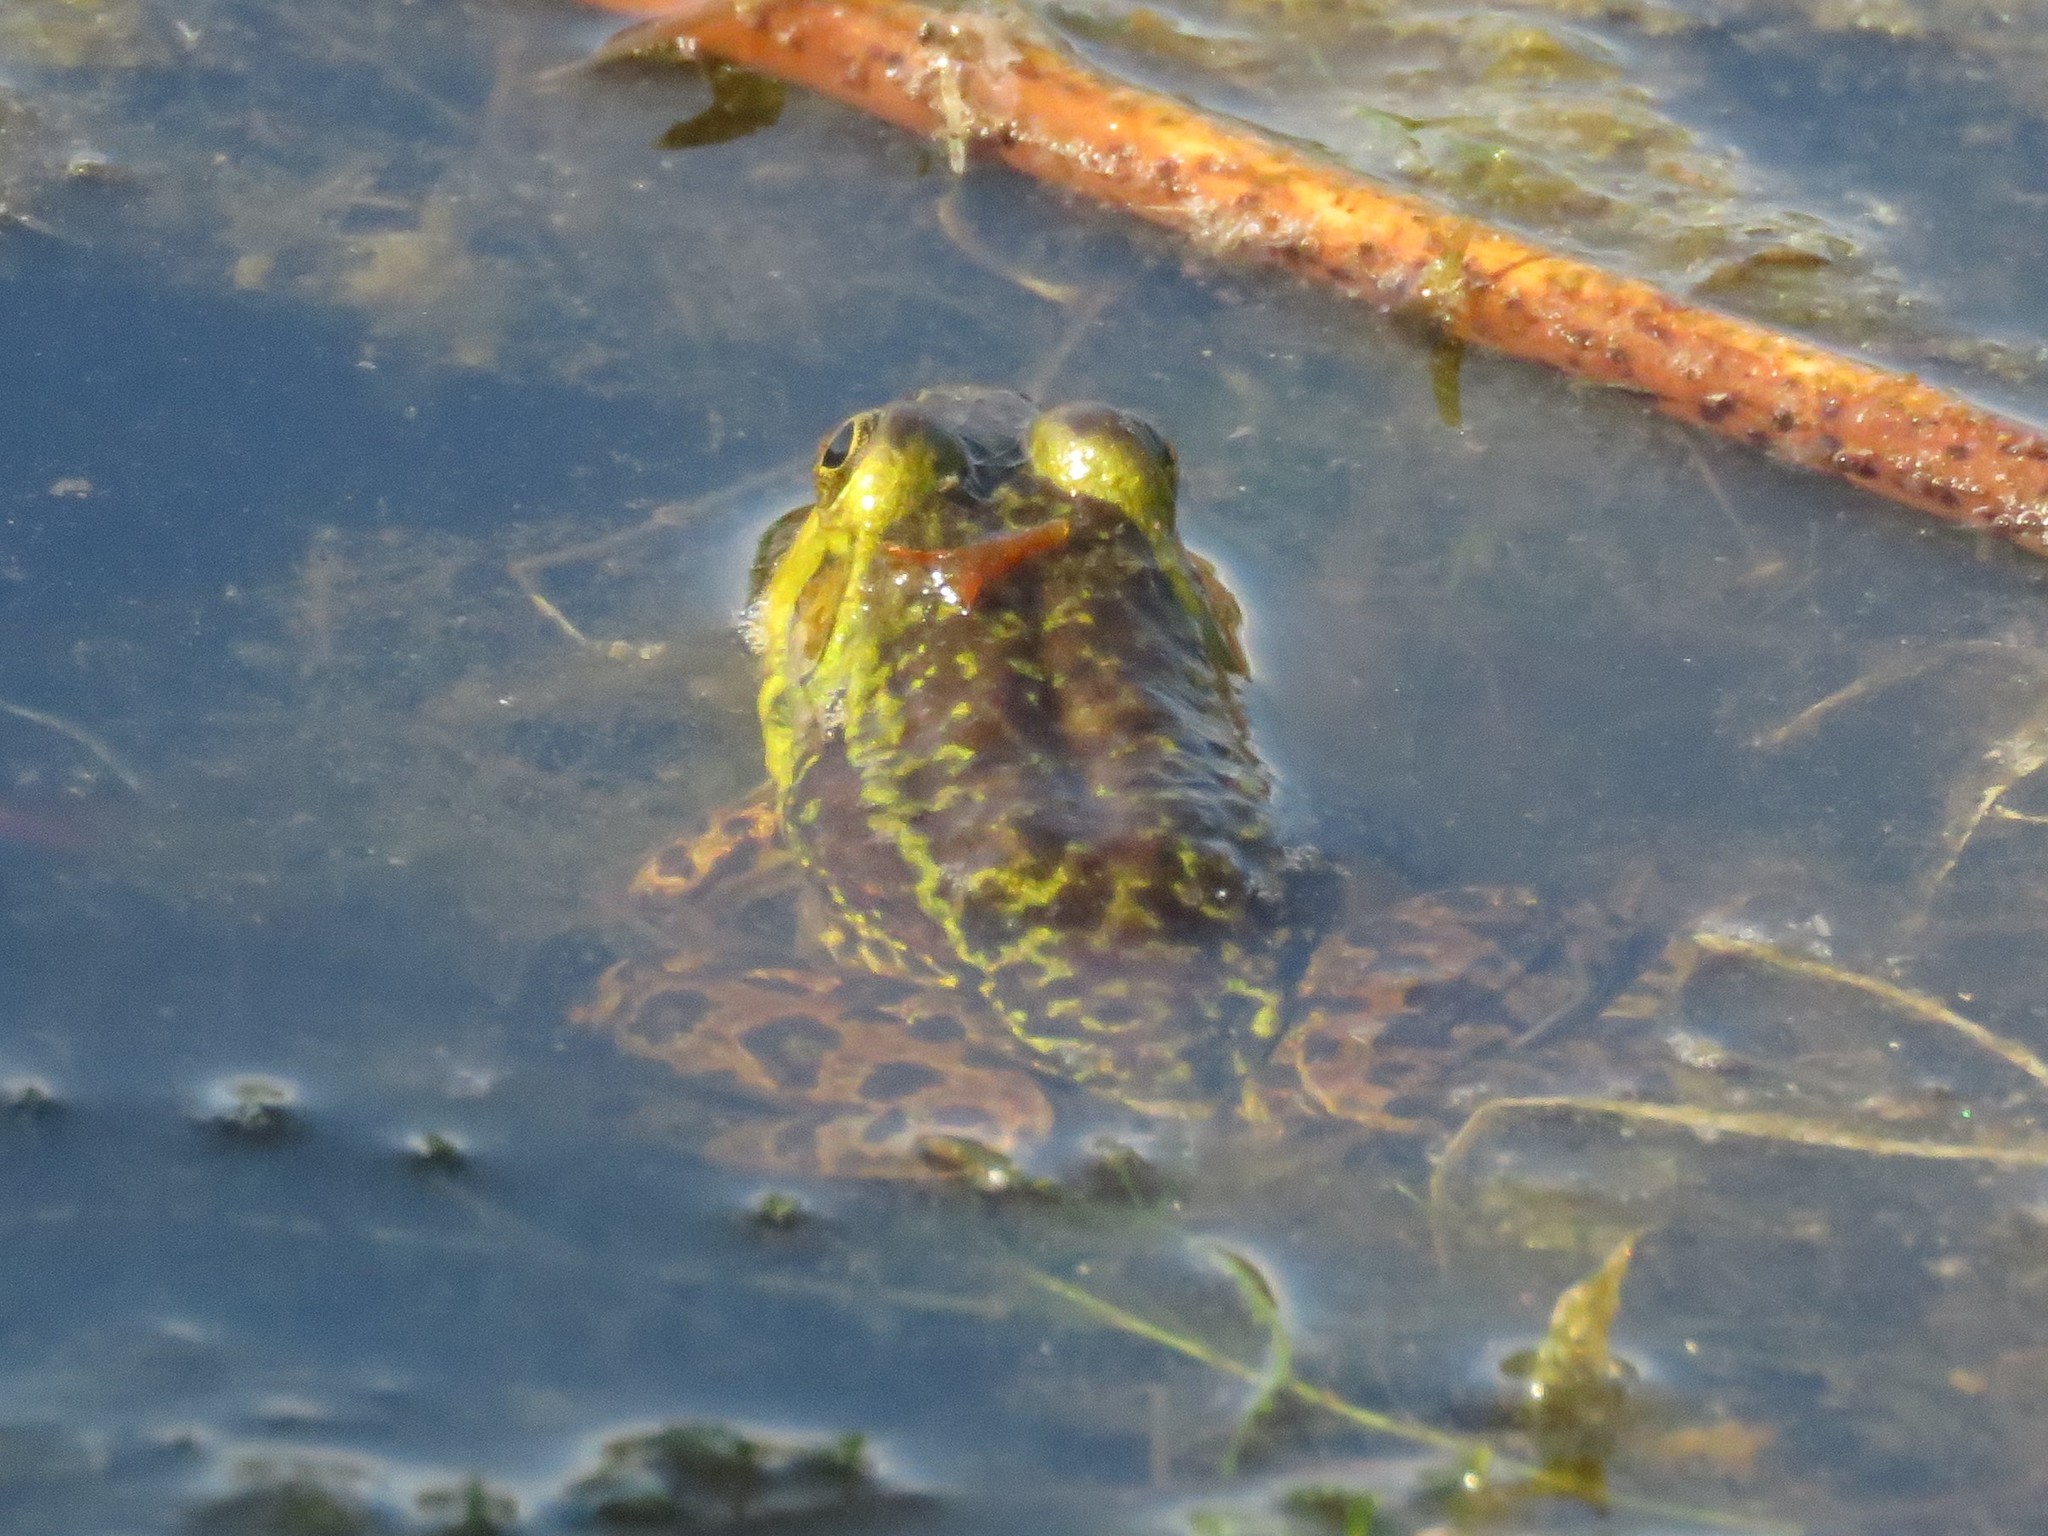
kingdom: Animalia
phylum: Chordata
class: Amphibia
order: Anura
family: Ranidae
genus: Lithobates
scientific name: Lithobates septentrionalis
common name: Mink frog
